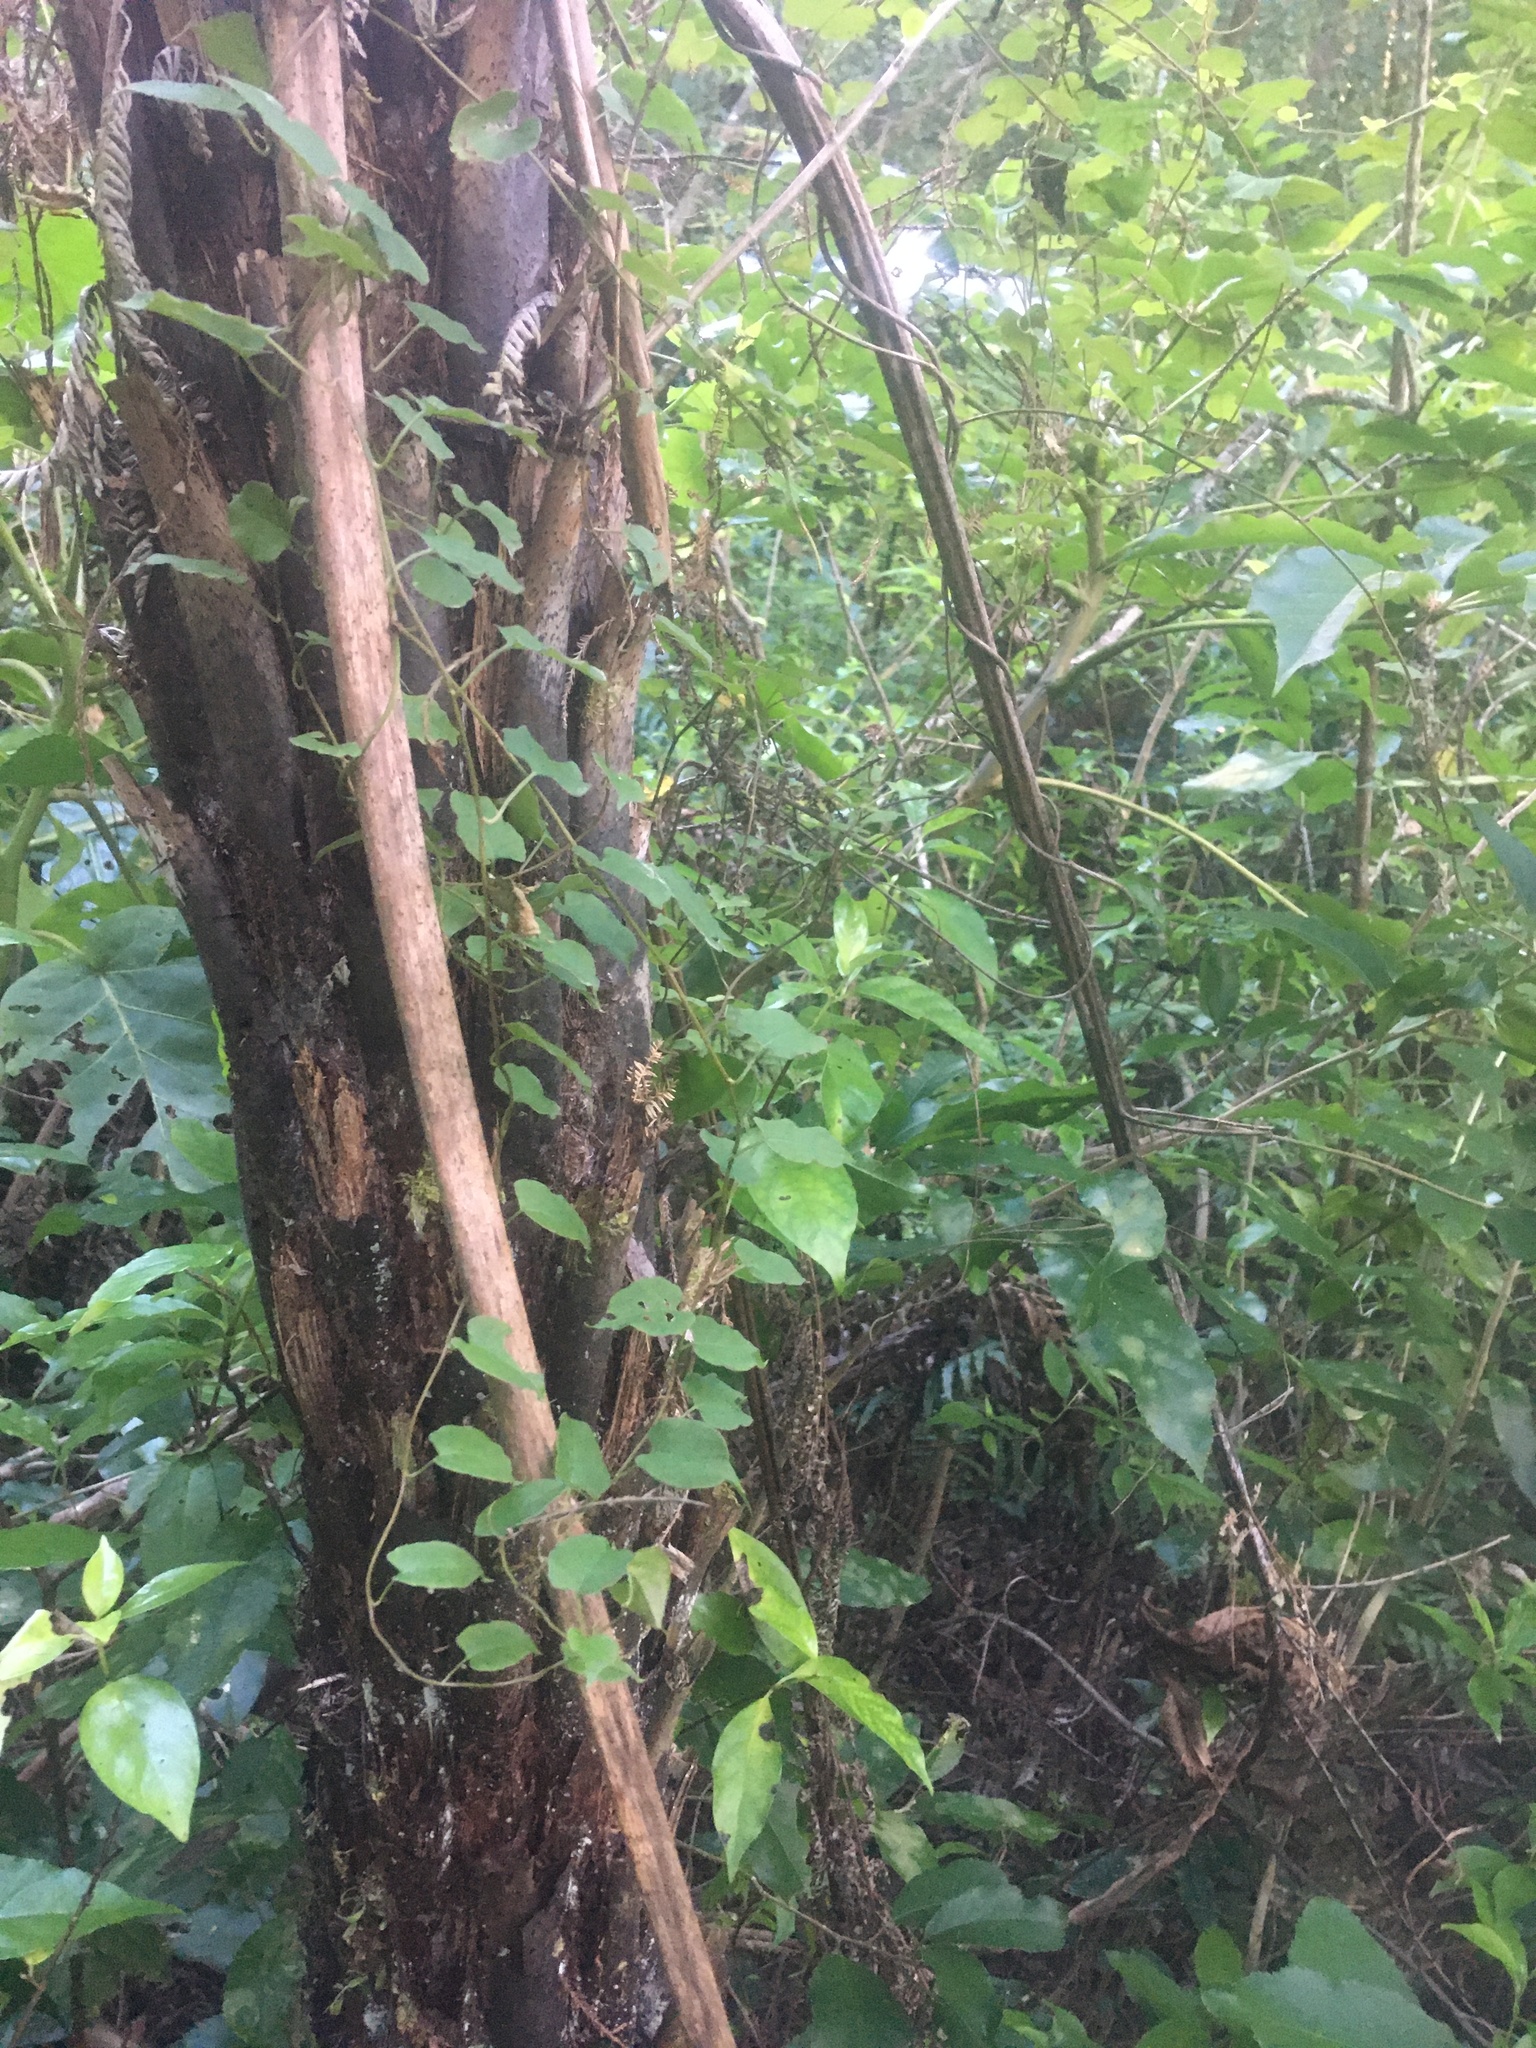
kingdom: Plantae
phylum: Tracheophyta
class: Magnoliopsida
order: Caryophyllales
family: Polygonaceae
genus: Muehlenbeckia
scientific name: Muehlenbeckia australis
